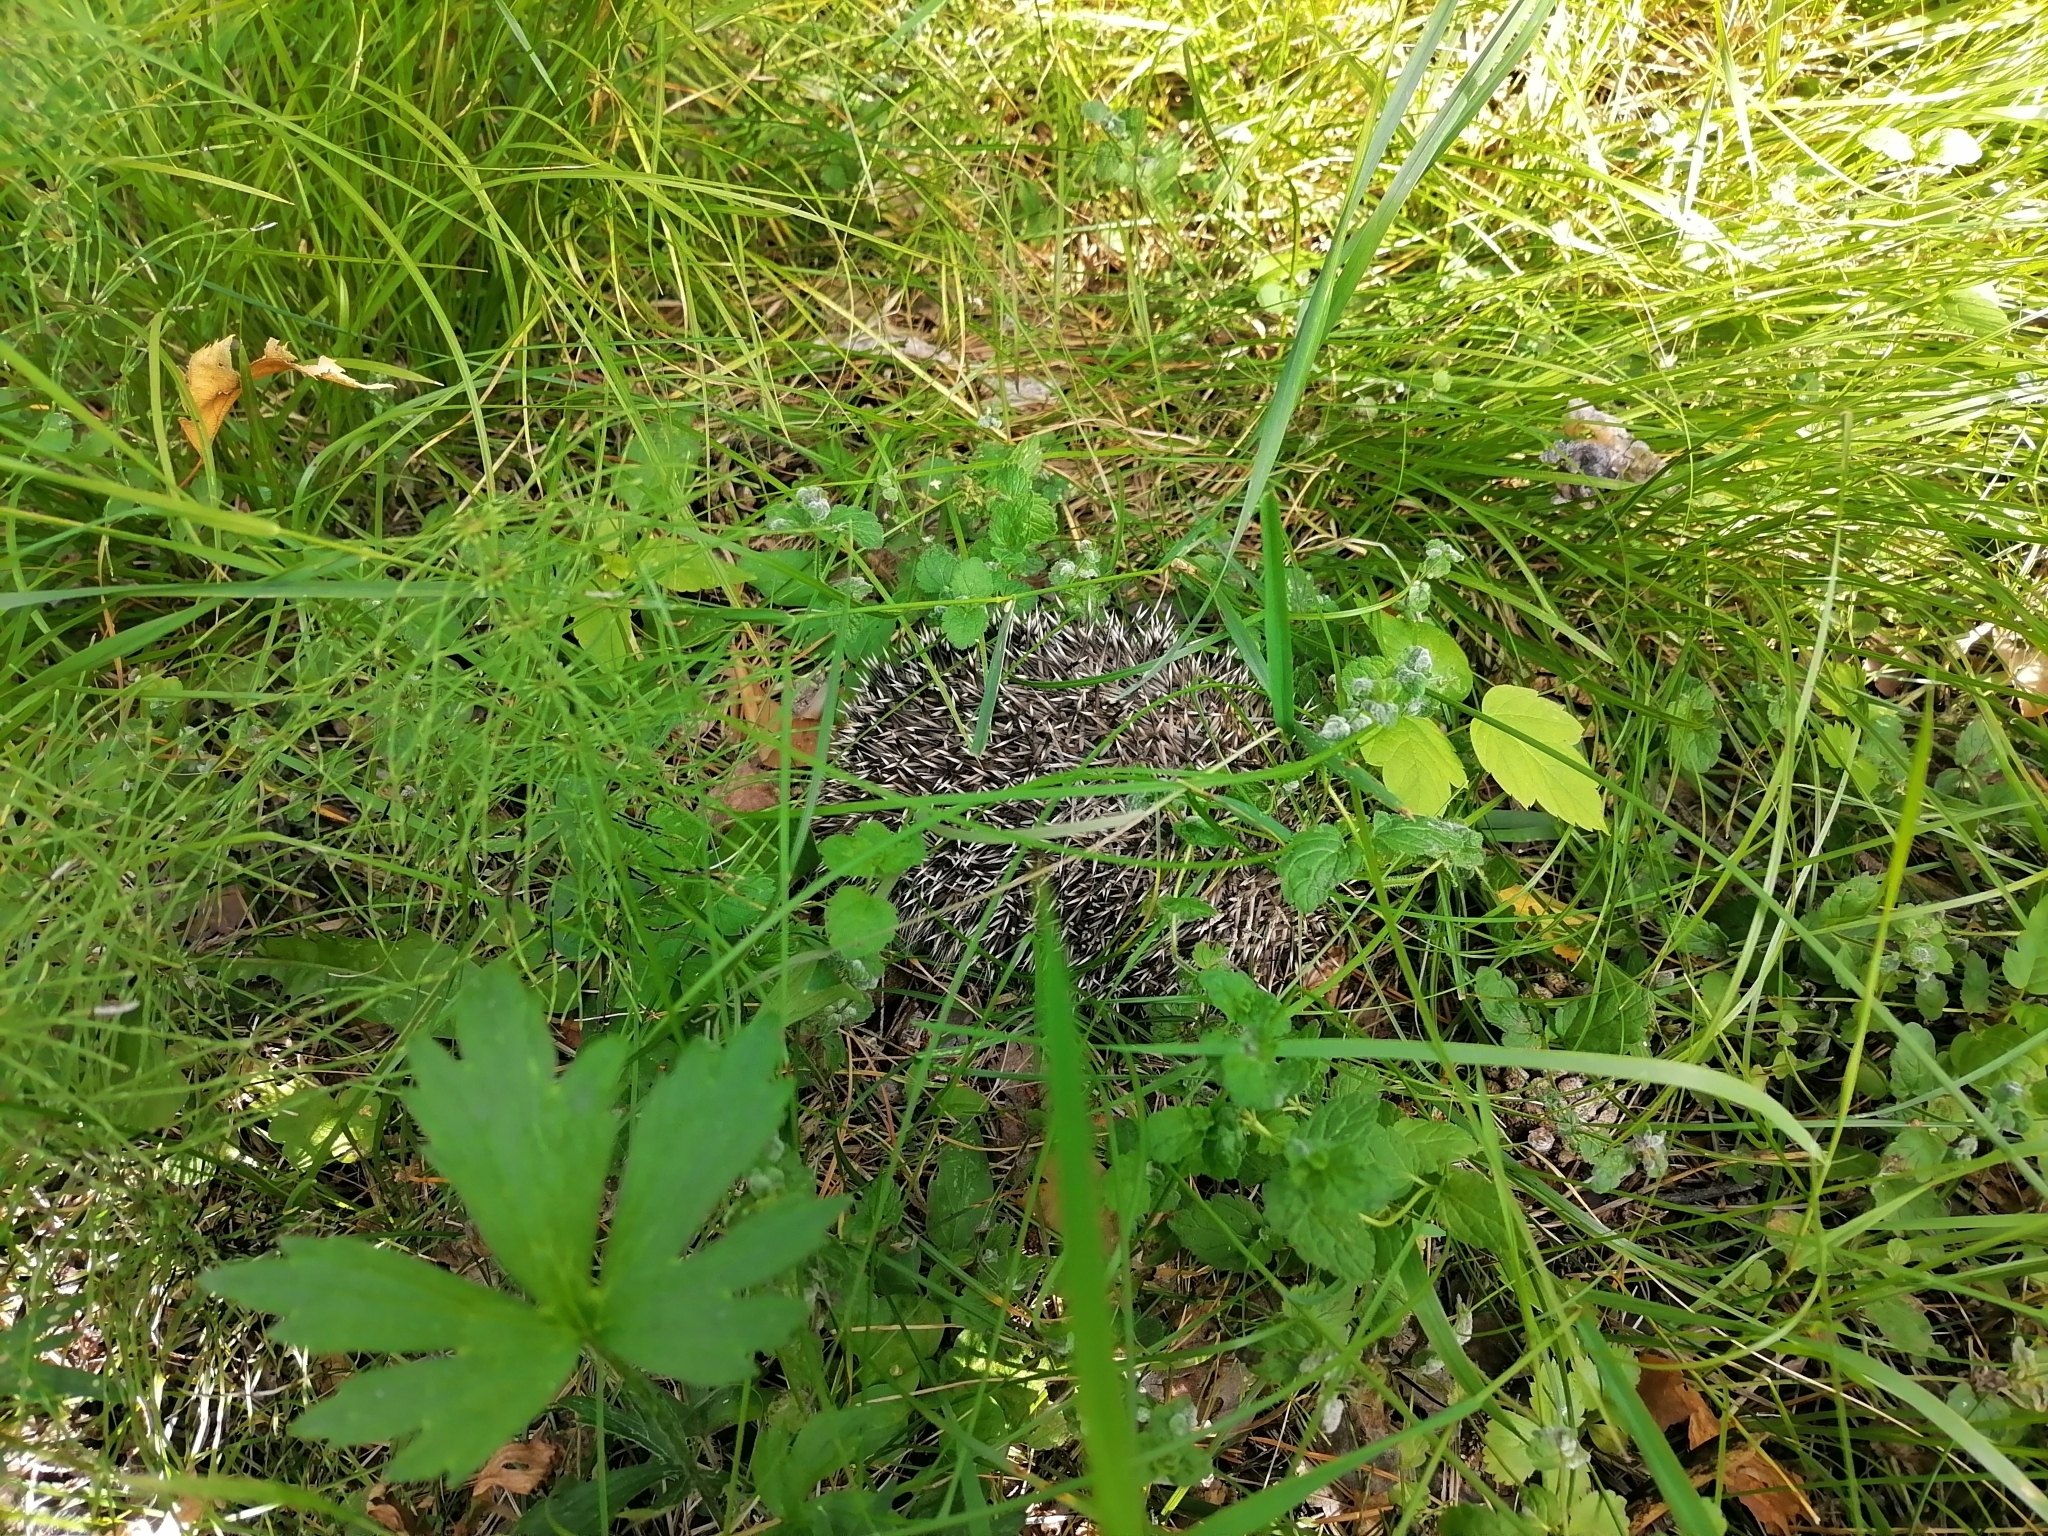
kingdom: Animalia
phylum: Chordata
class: Mammalia
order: Erinaceomorpha
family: Erinaceidae
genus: Erinaceus
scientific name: Erinaceus roumanicus
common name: Northern white-breasted hedgehog
